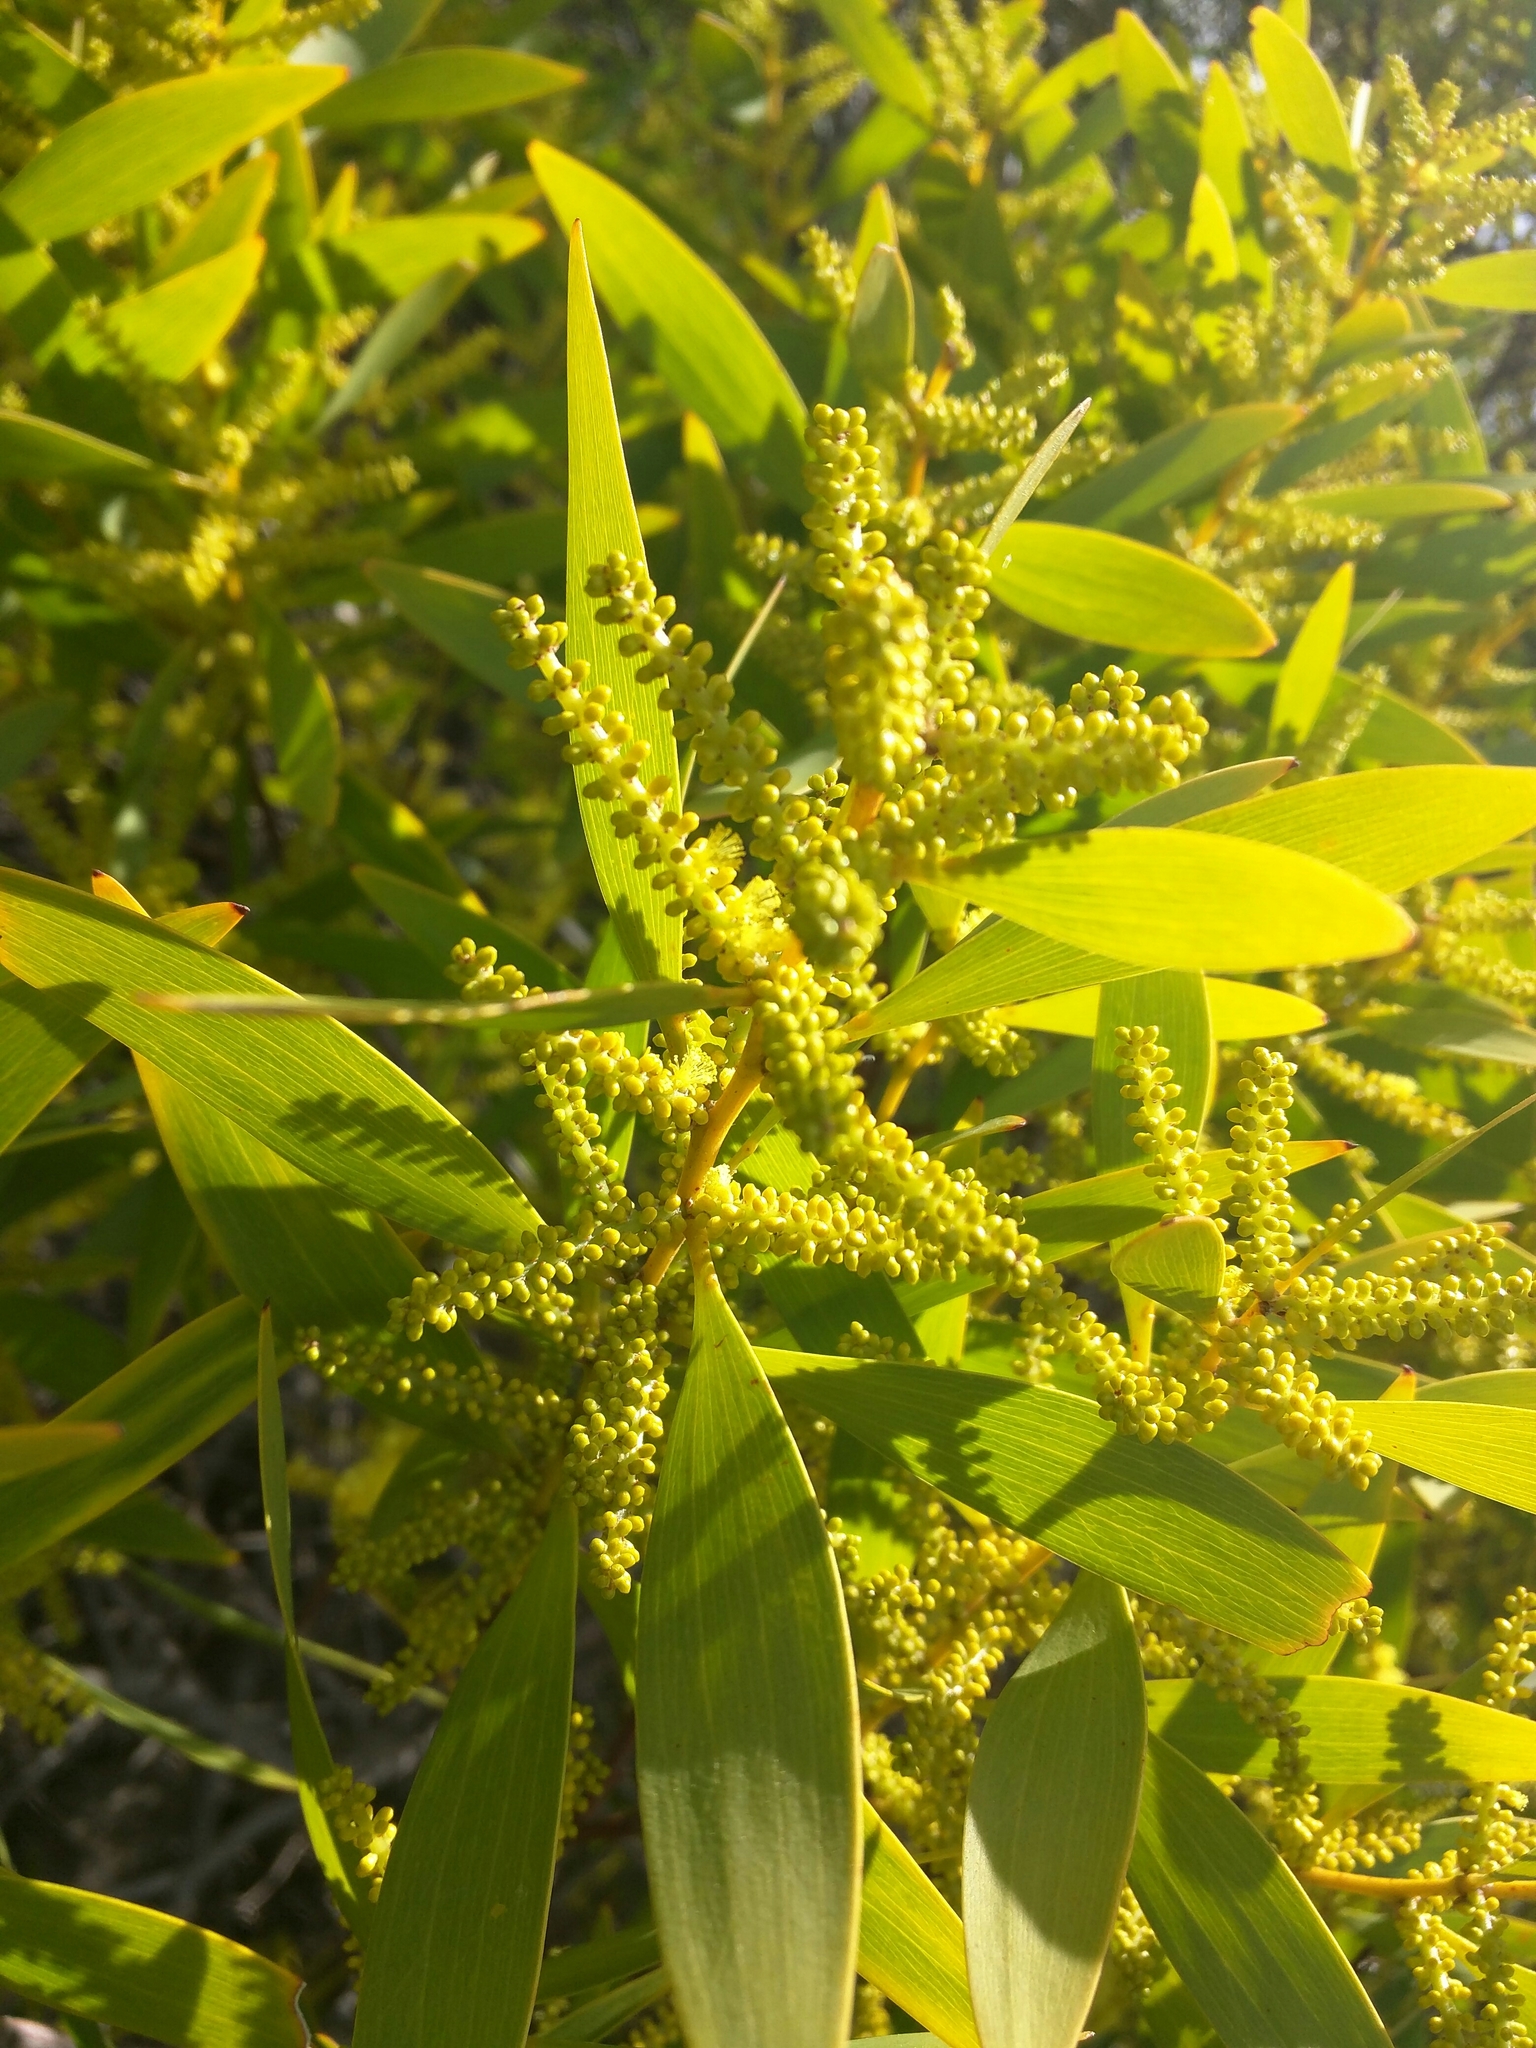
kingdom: Plantae
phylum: Tracheophyta
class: Magnoliopsida
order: Fabales
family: Fabaceae
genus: Acacia
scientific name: Acacia longifolia
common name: Sydney golden wattle
